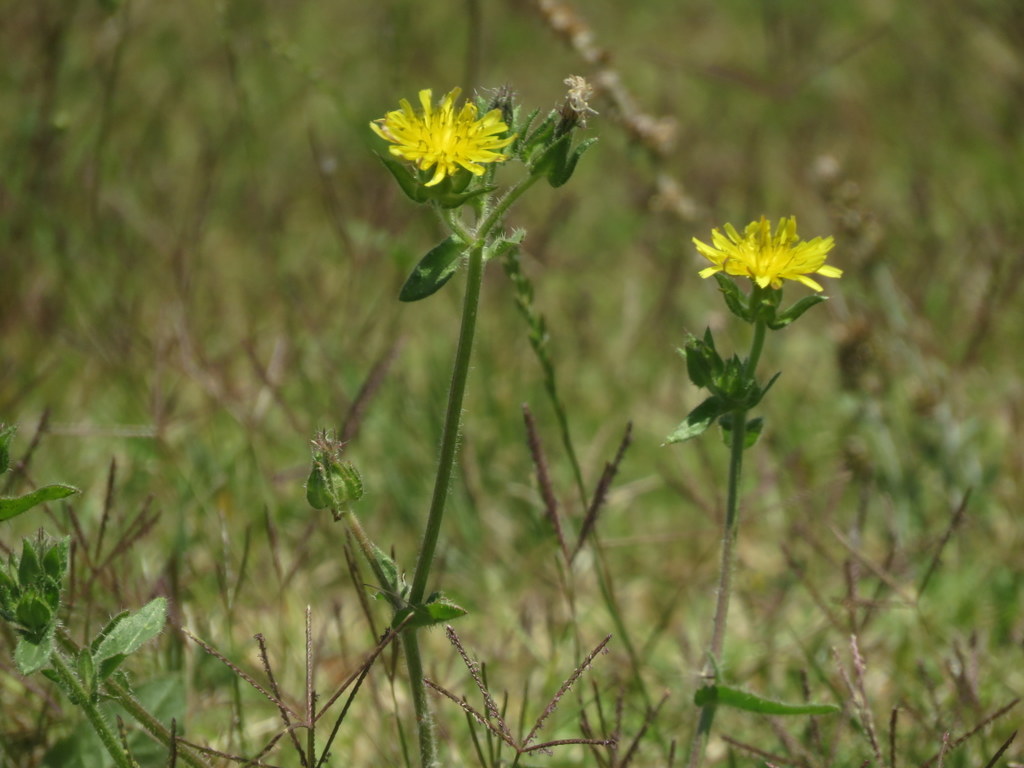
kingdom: Plantae
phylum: Tracheophyta
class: Magnoliopsida
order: Asterales
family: Asteraceae
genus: Helminthotheca
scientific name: Helminthotheca echioides
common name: Ox-tongue
